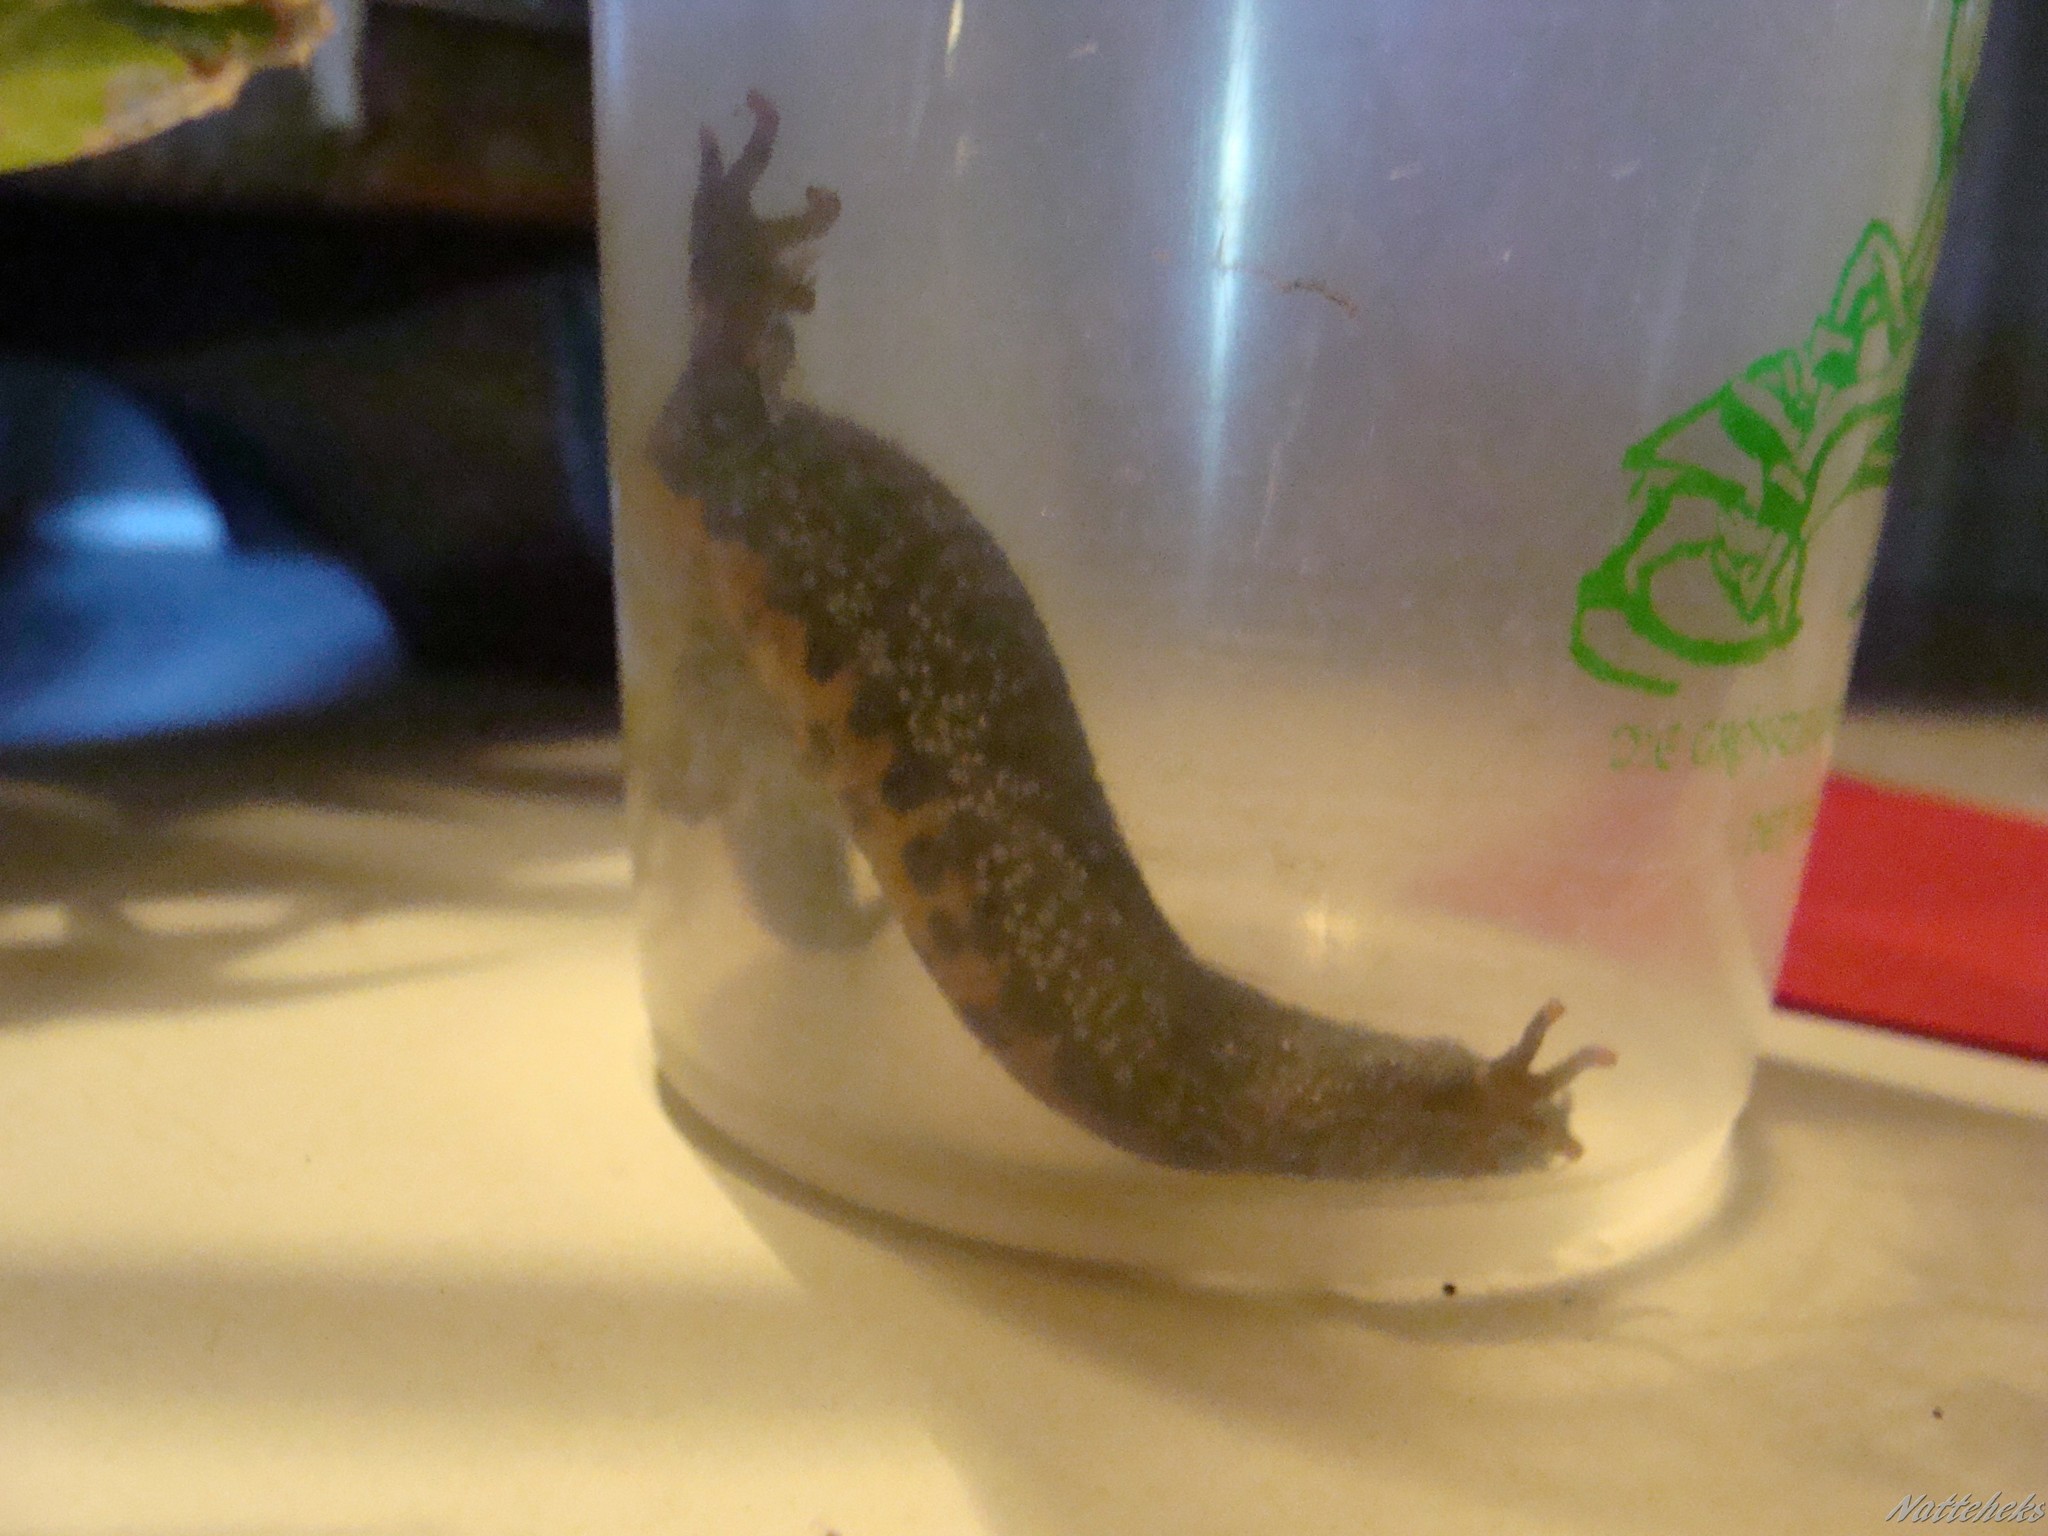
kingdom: Animalia
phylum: Chordata
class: Amphibia
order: Caudata
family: Salamandridae
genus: Triturus
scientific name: Triturus cristatus
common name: Crested newt
